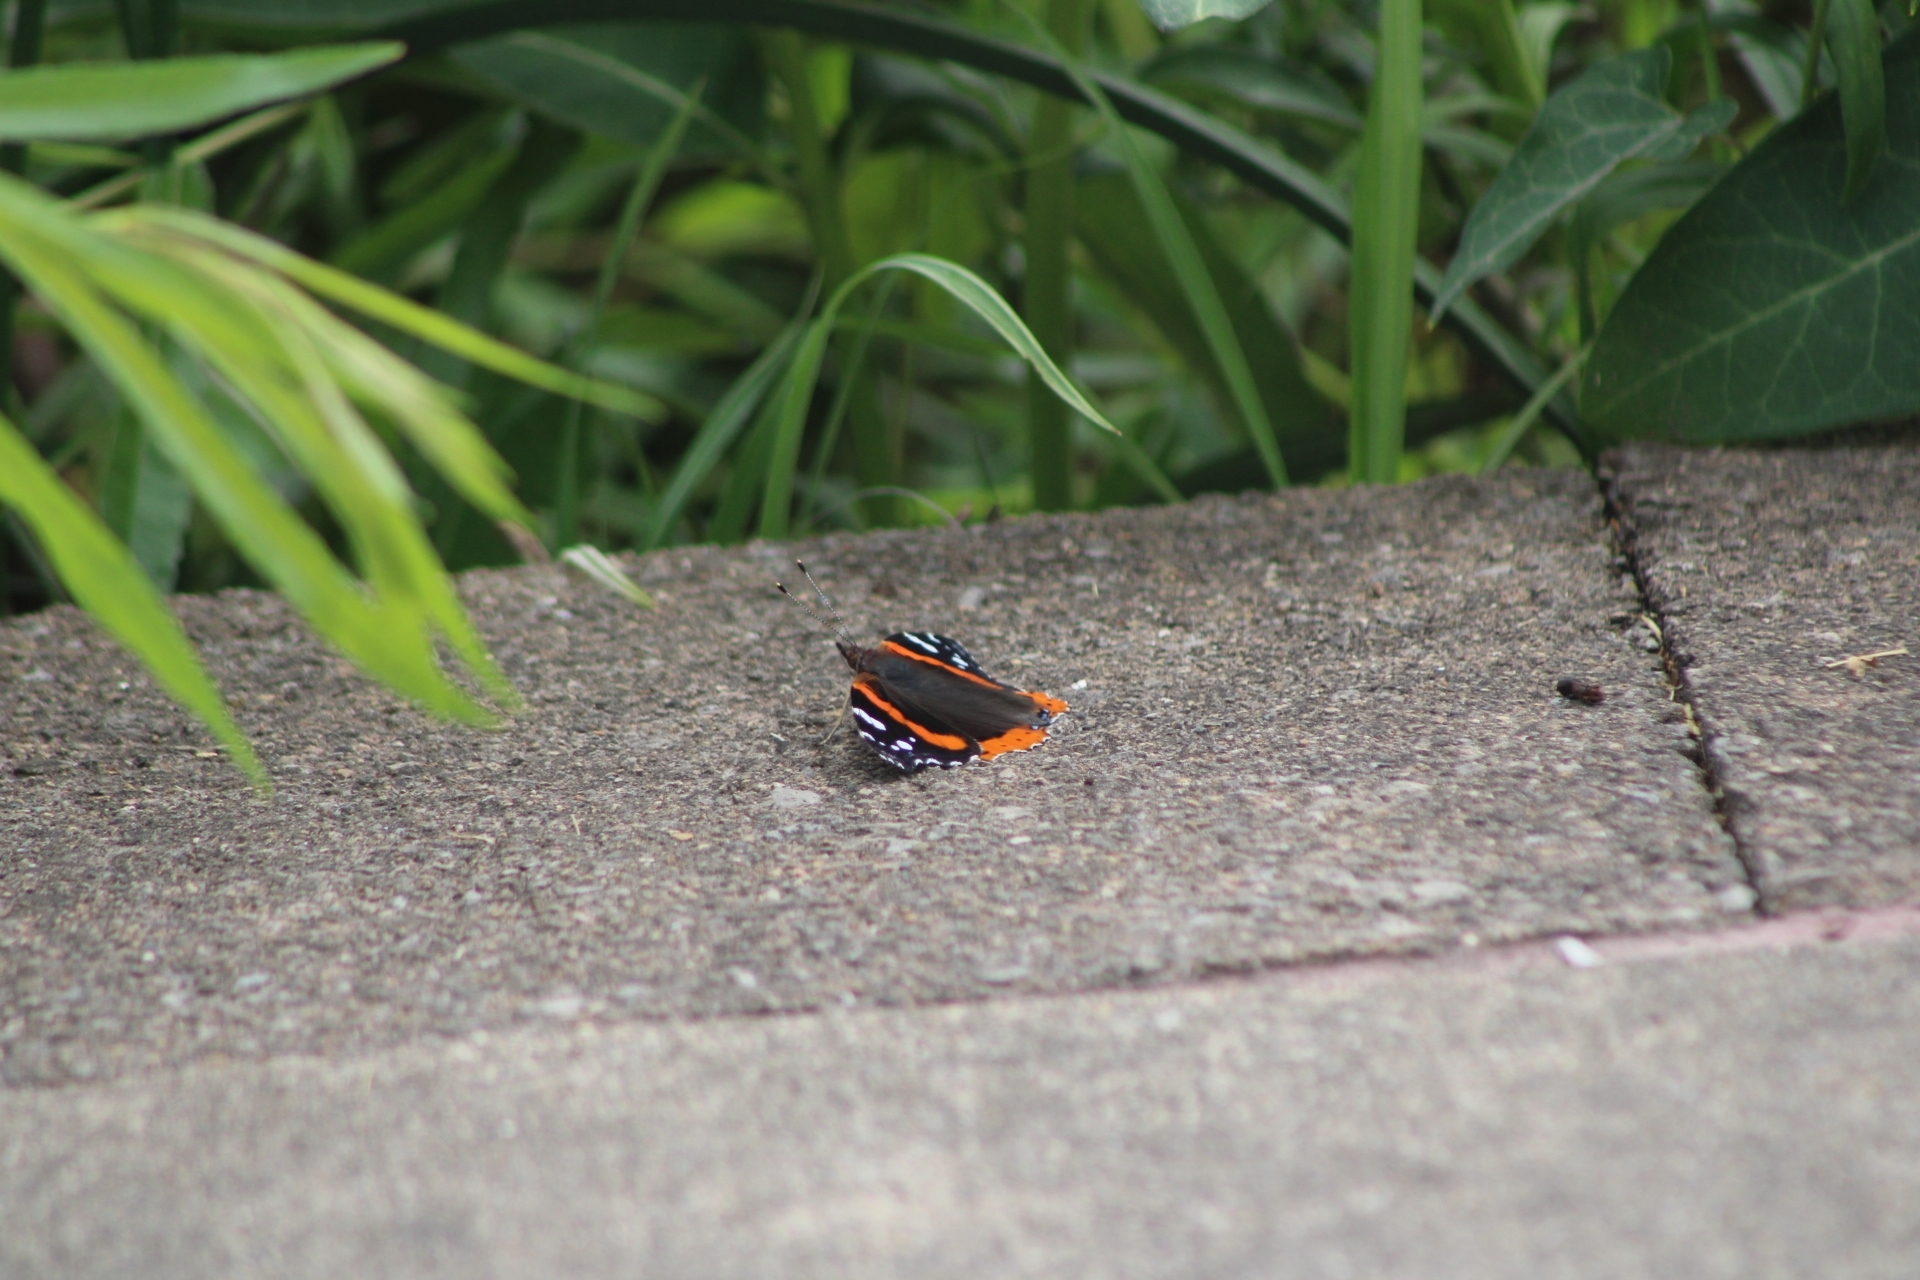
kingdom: Animalia
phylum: Arthropoda
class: Insecta
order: Lepidoptera
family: Nymphalidae
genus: Vanessa
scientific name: Vanessa atalanta
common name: Red admiral
